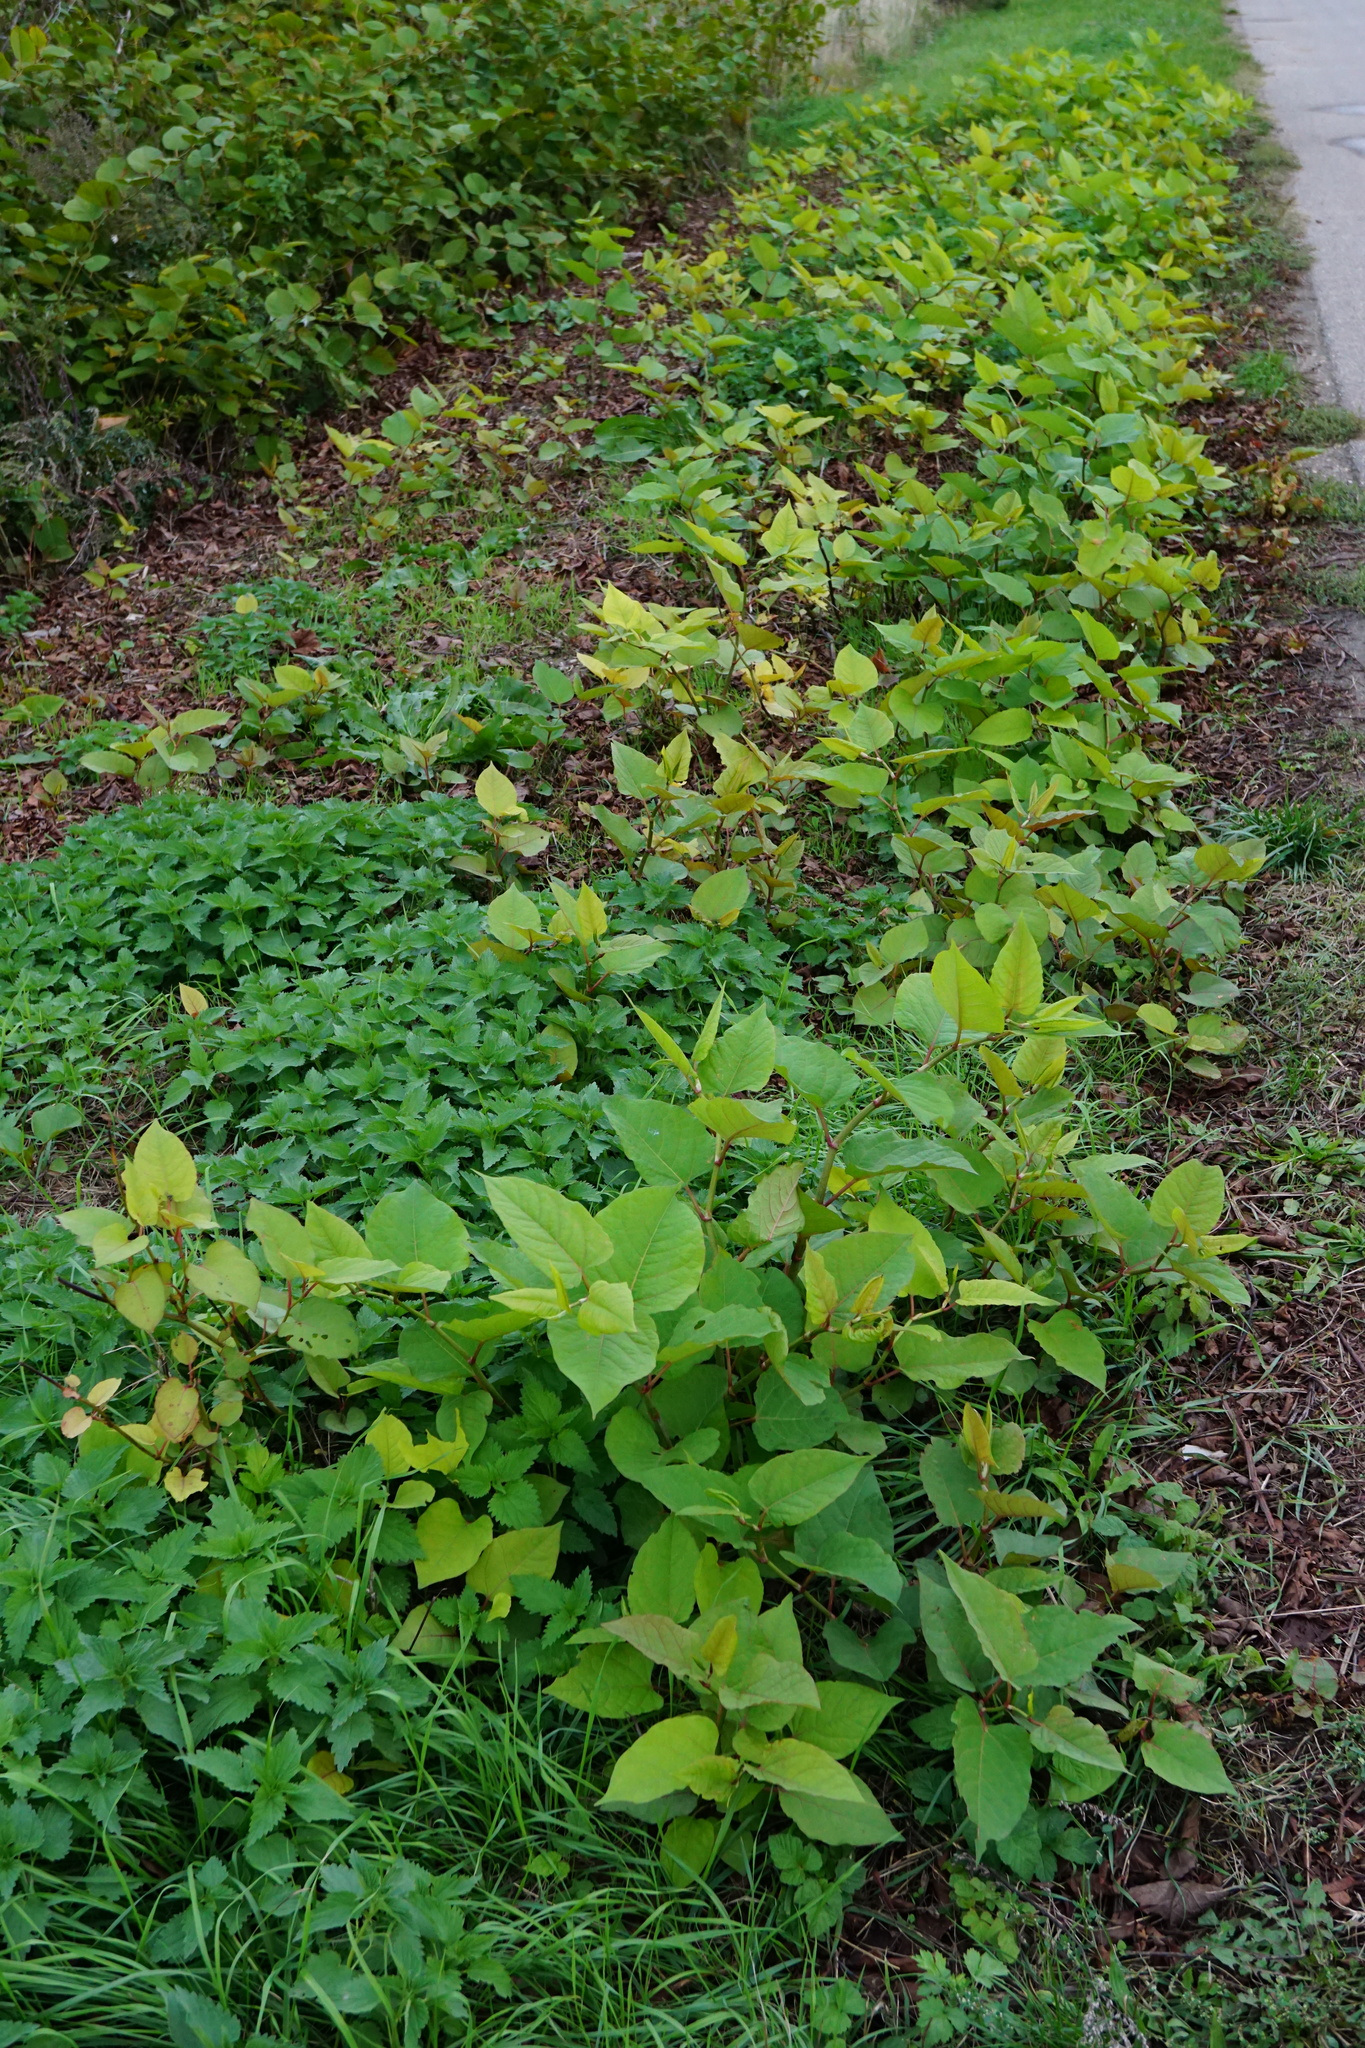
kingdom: Plantae
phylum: Tracheophyta
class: Magnoliopsida
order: Caryophyllales
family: Polygonaceae
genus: Reynoutria
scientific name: Reynoutria bohemica
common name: Bohemian knotweed
